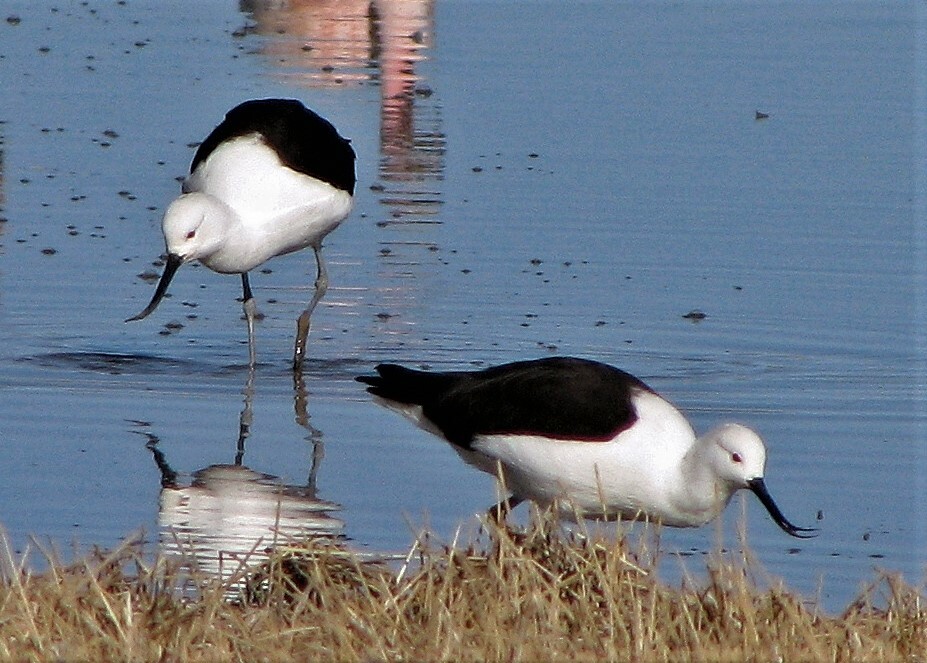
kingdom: Animalia
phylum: Chordata
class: Aves
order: Charadriiformes
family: Recurvirostridae
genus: Recurvirostra
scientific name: Recurvirostra andina
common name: Andean avocet
